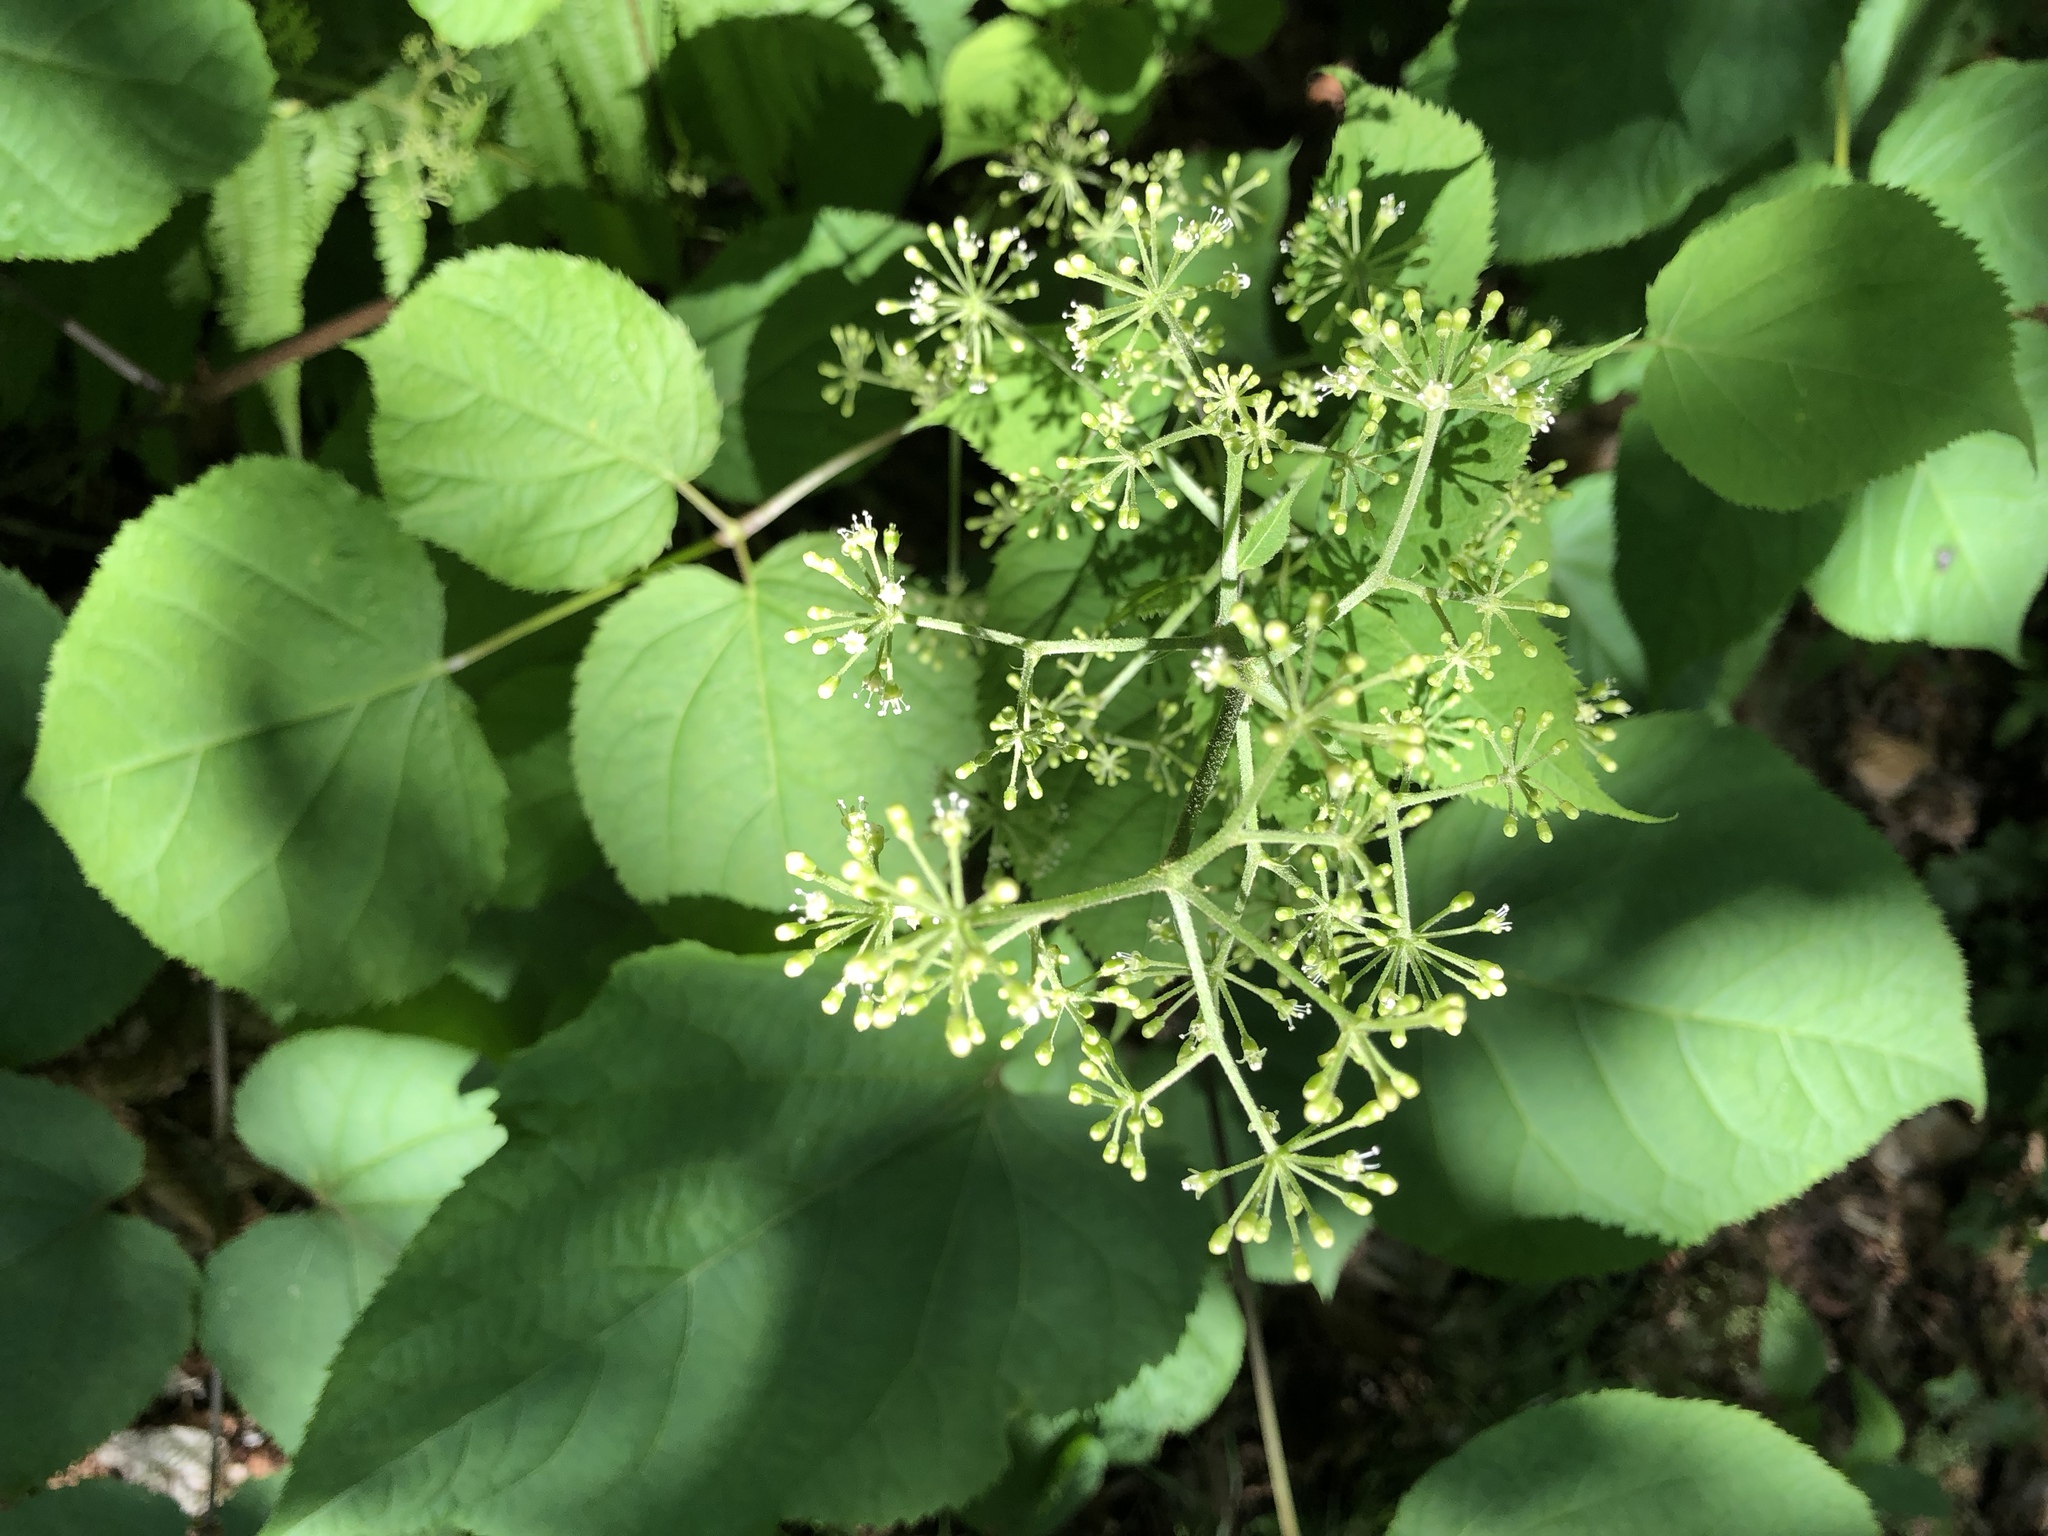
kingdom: Plantae
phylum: Tracheophyta
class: Magnoliopsida
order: Apiales
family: Araliaceae
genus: Aralia
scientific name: Aralia racemosa
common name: American-spikenard
